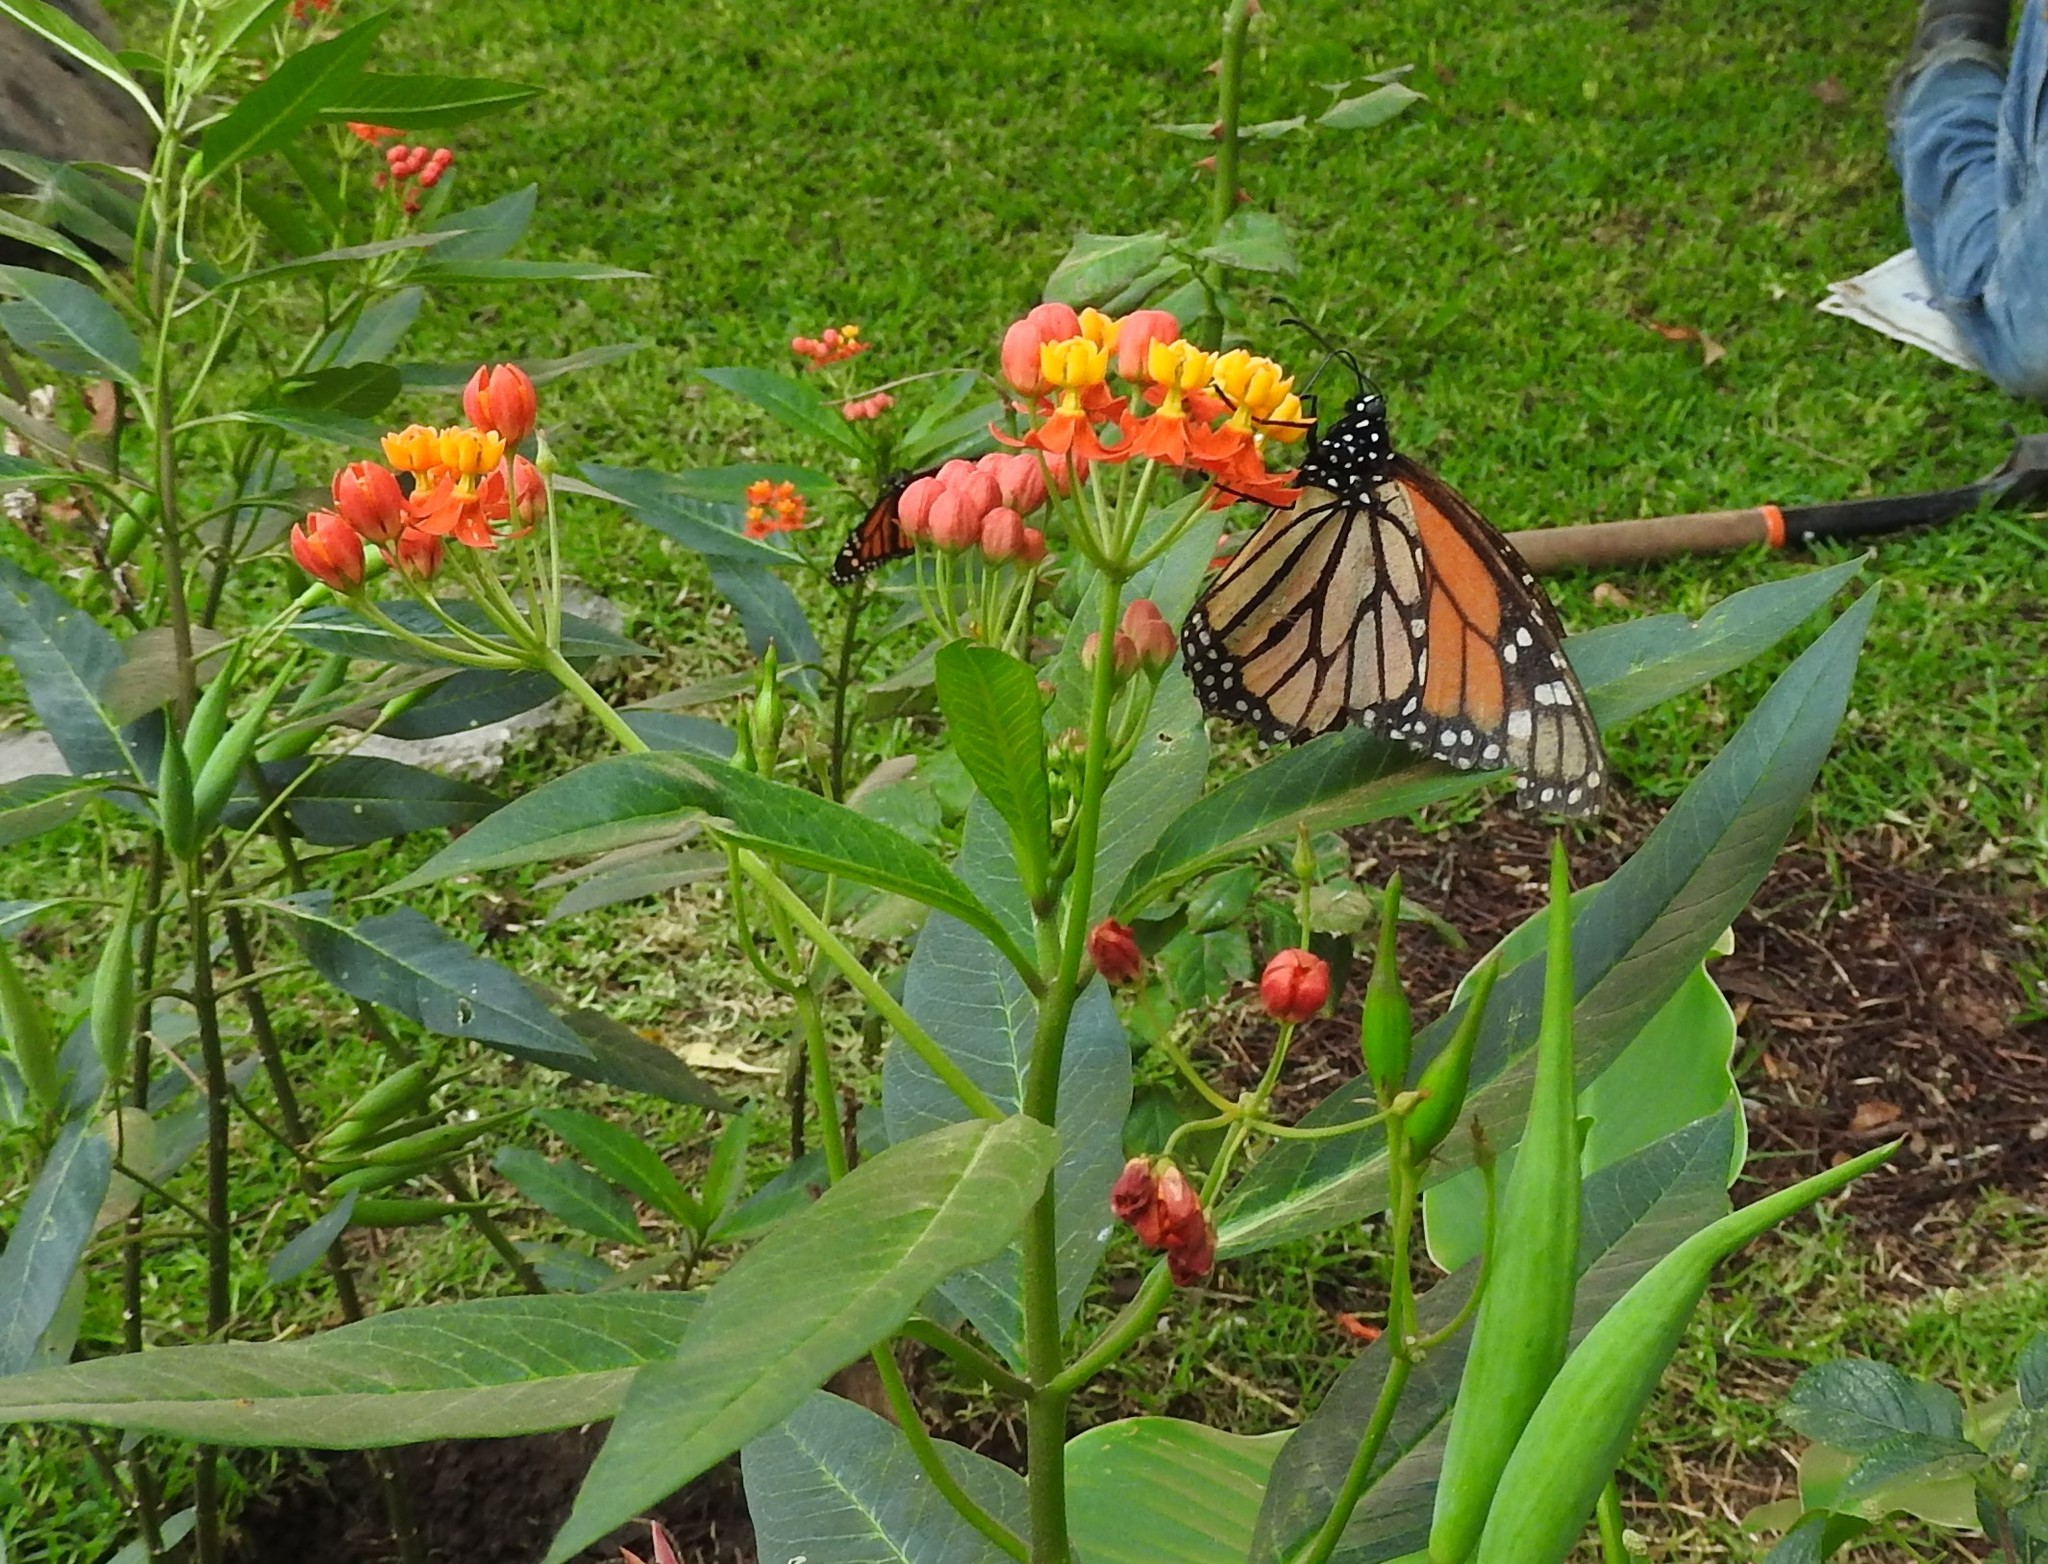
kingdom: Animalia
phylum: Arthropoda
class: Insecta
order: Lepidoptera
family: Nymphalidae
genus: Danaus
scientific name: Danaus plexippus
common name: Monarch
